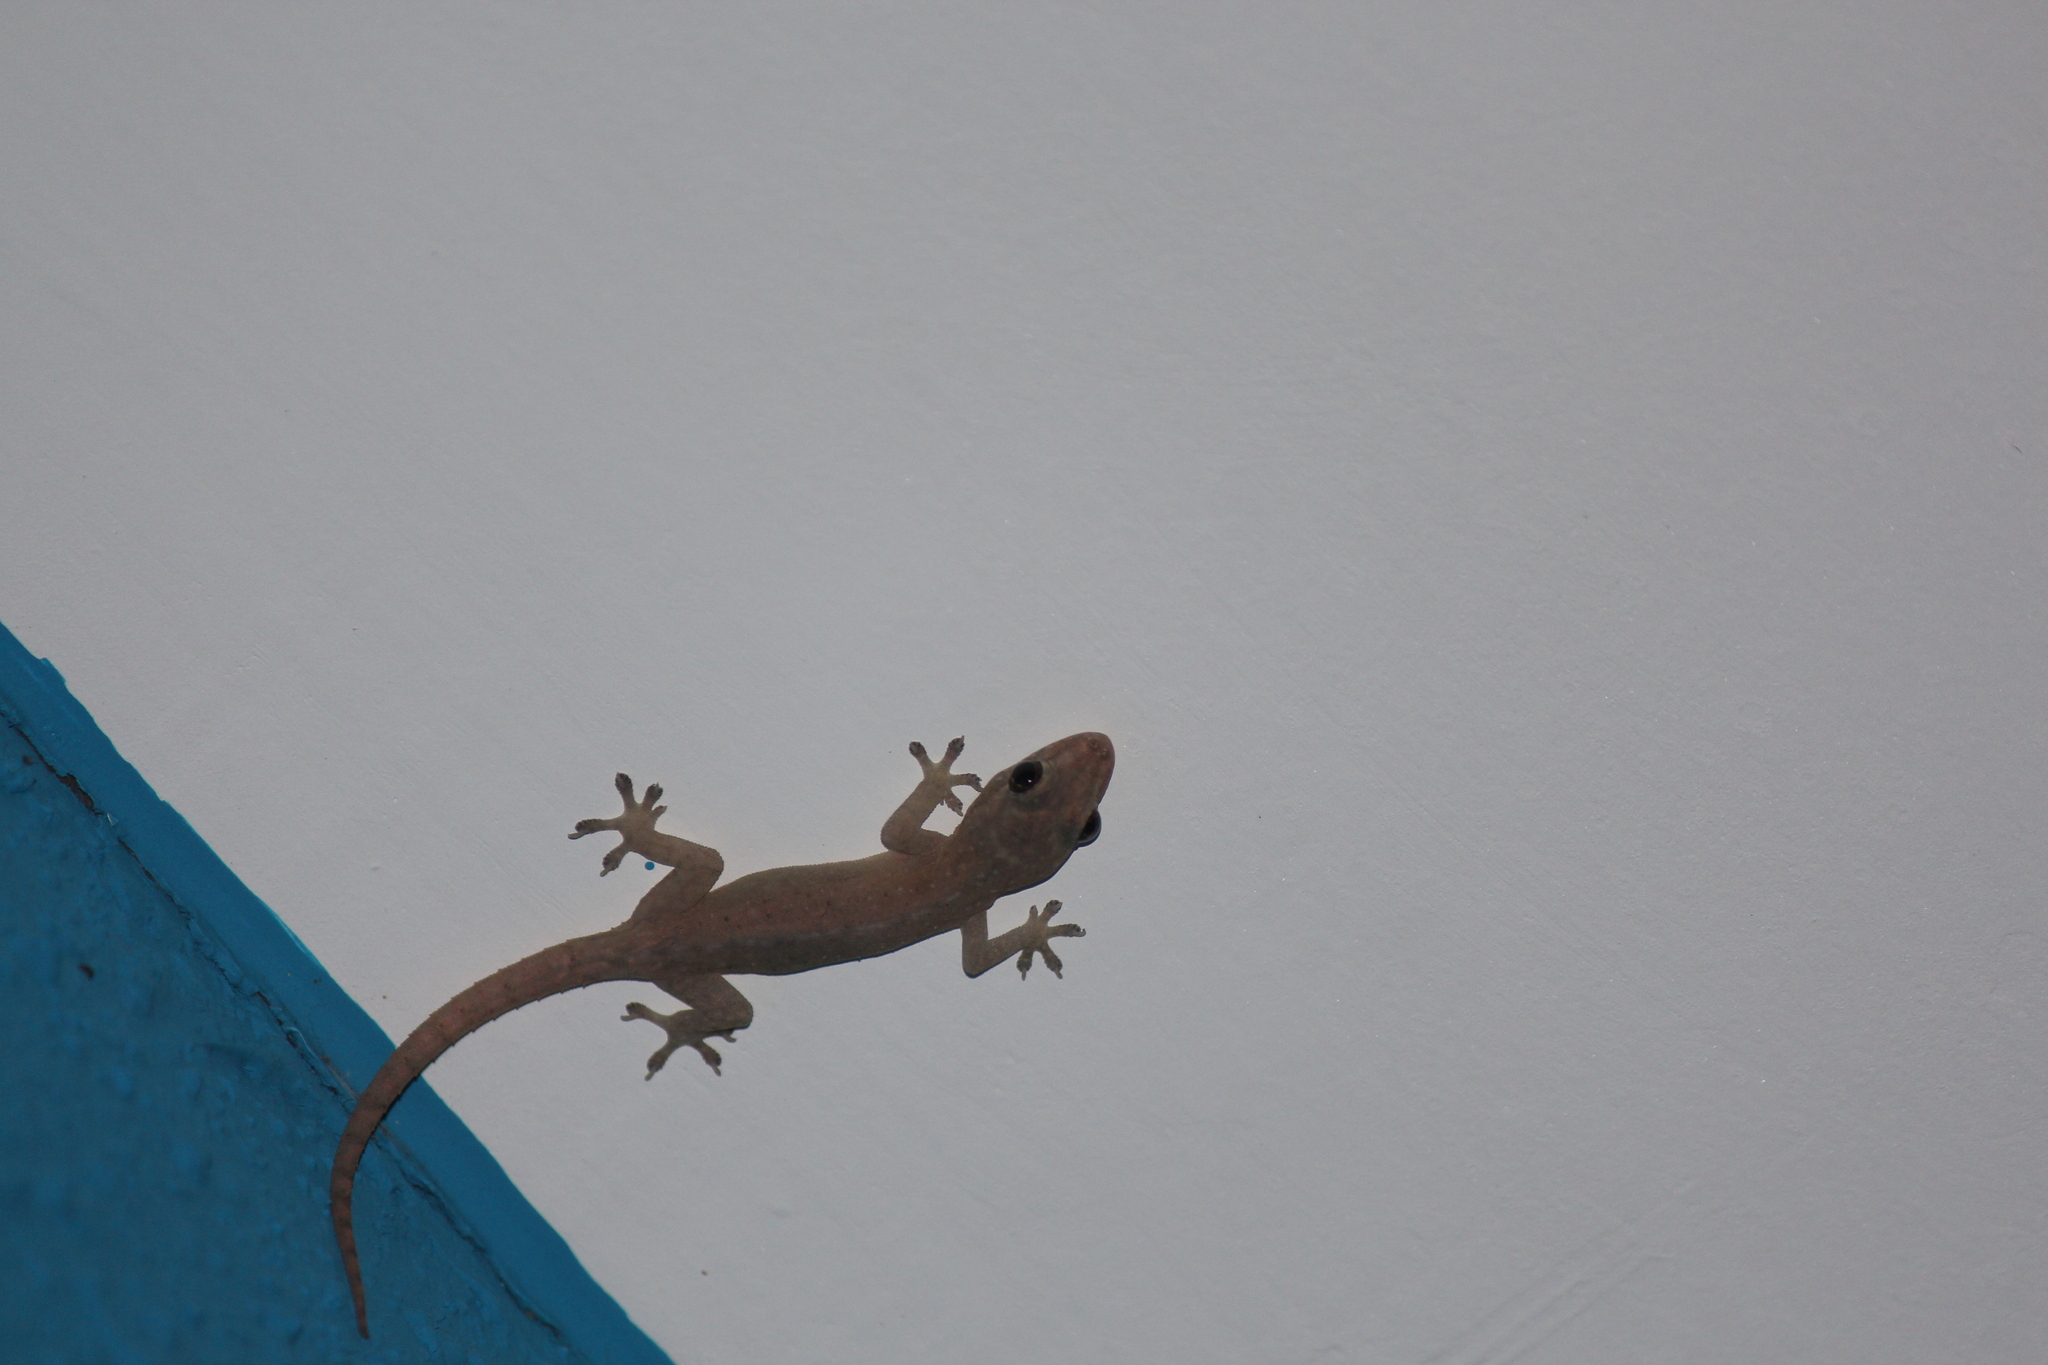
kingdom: Animalia
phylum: Chordata
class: Squamata
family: Gekkonidae
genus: Hemidactylus
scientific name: Hemidactylus frenatus
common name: Common house gecko
